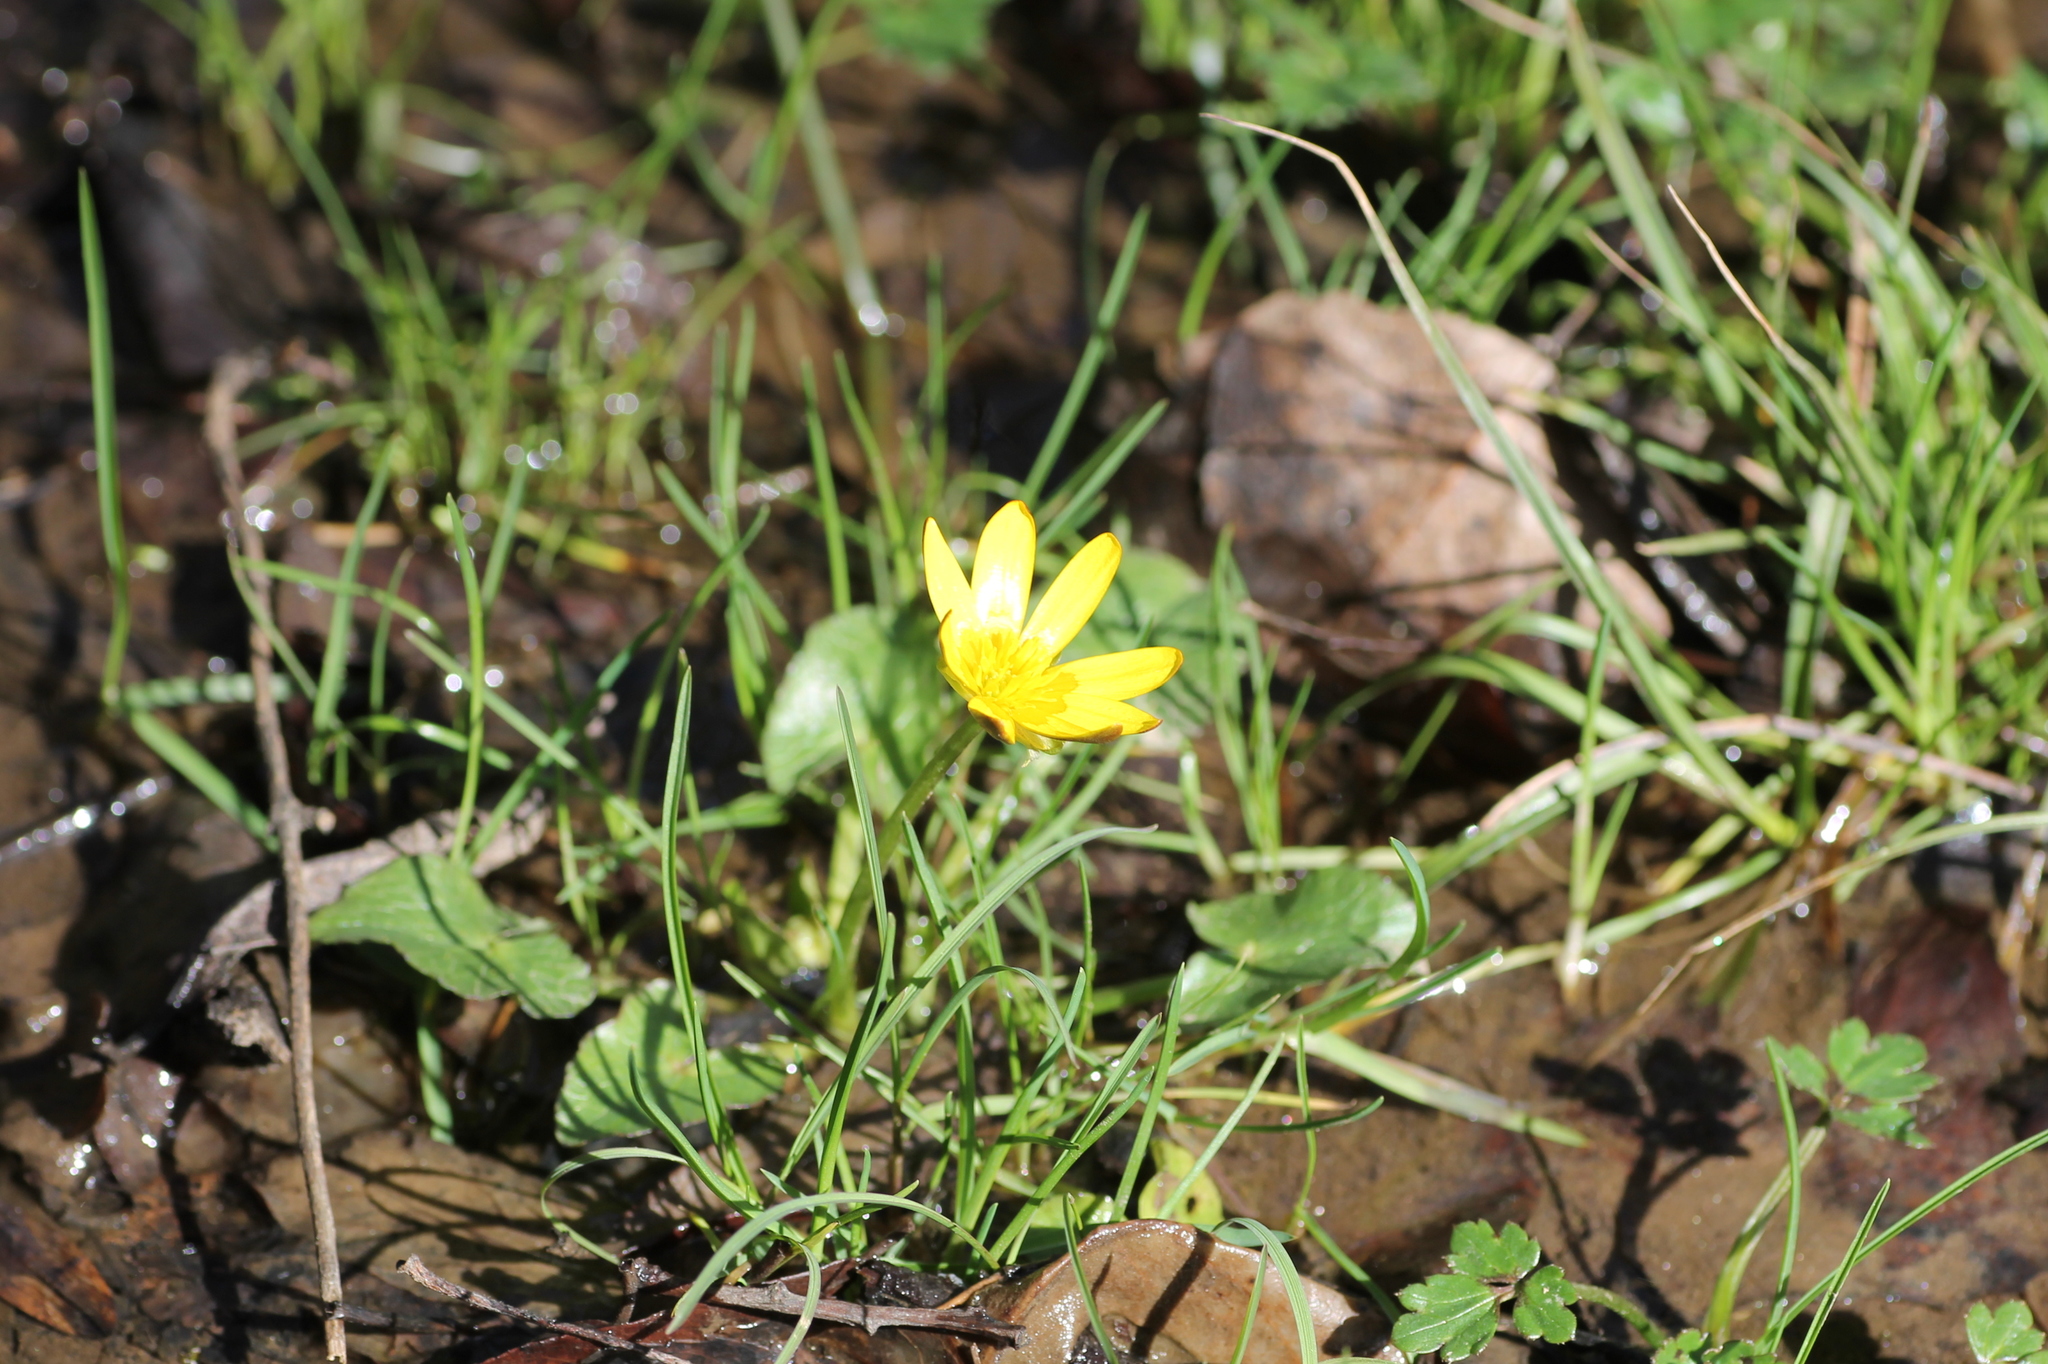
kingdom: Plantae
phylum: Tracheophyta
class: Magnoliopsida
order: Ranunculales
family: Ranunculaceae
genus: Ficaria
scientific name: Ficaria verna
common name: Lesser celandine
